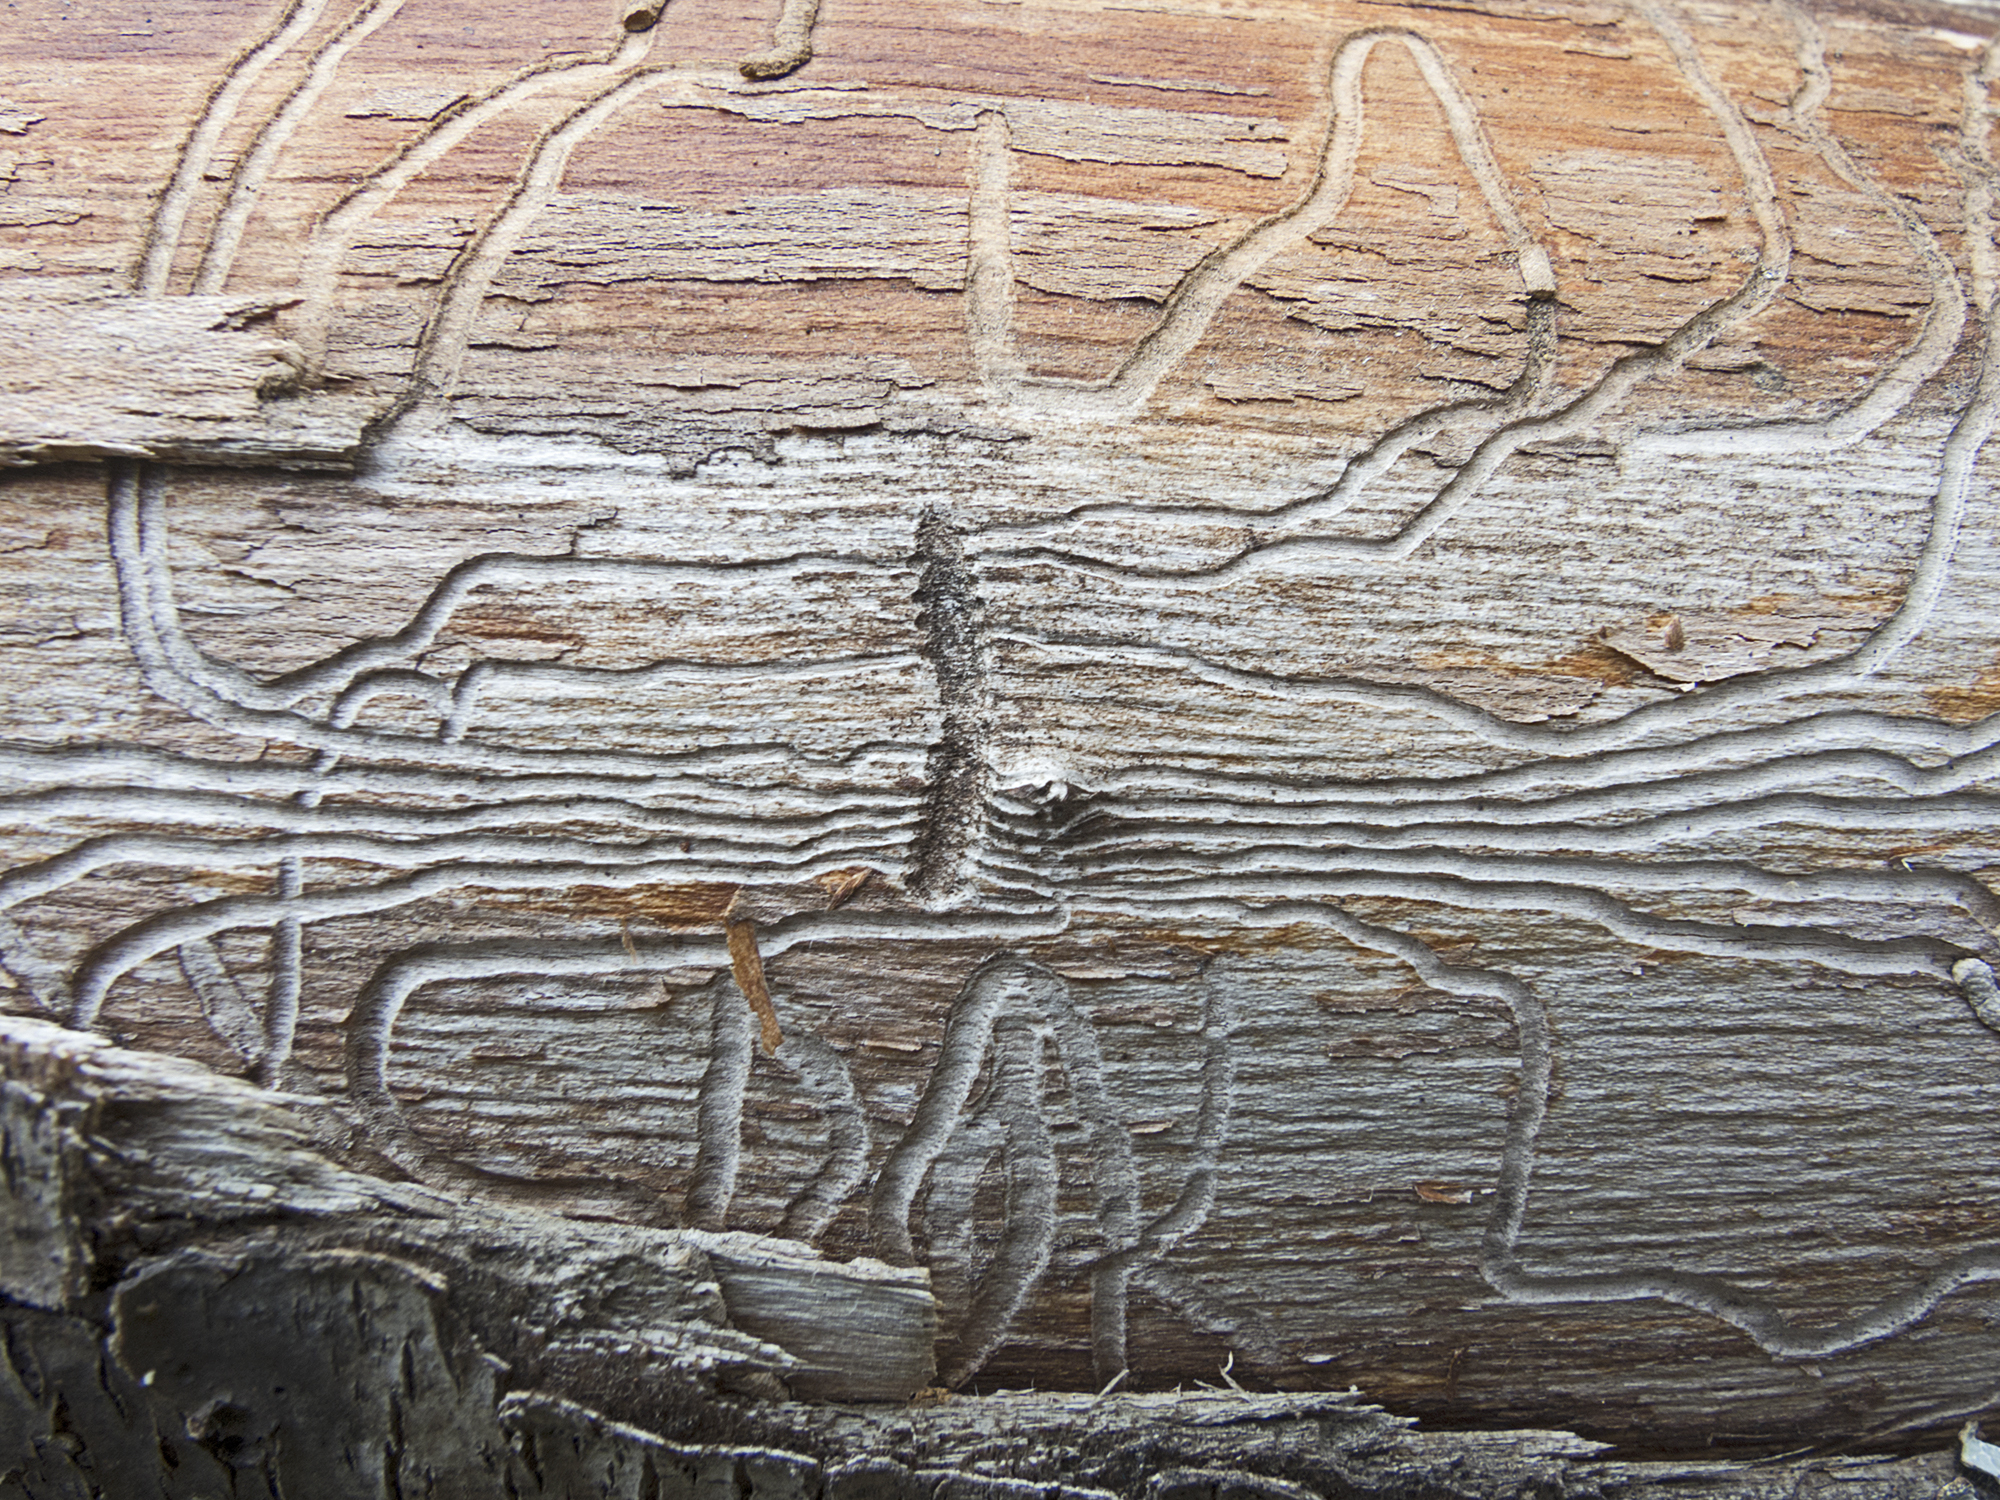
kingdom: Animalia
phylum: Arthropoda
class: Insecta
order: Coleoptera
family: Curculionidae
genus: Scolytus
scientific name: Scolytus intricatus
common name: Oak bark beetle
